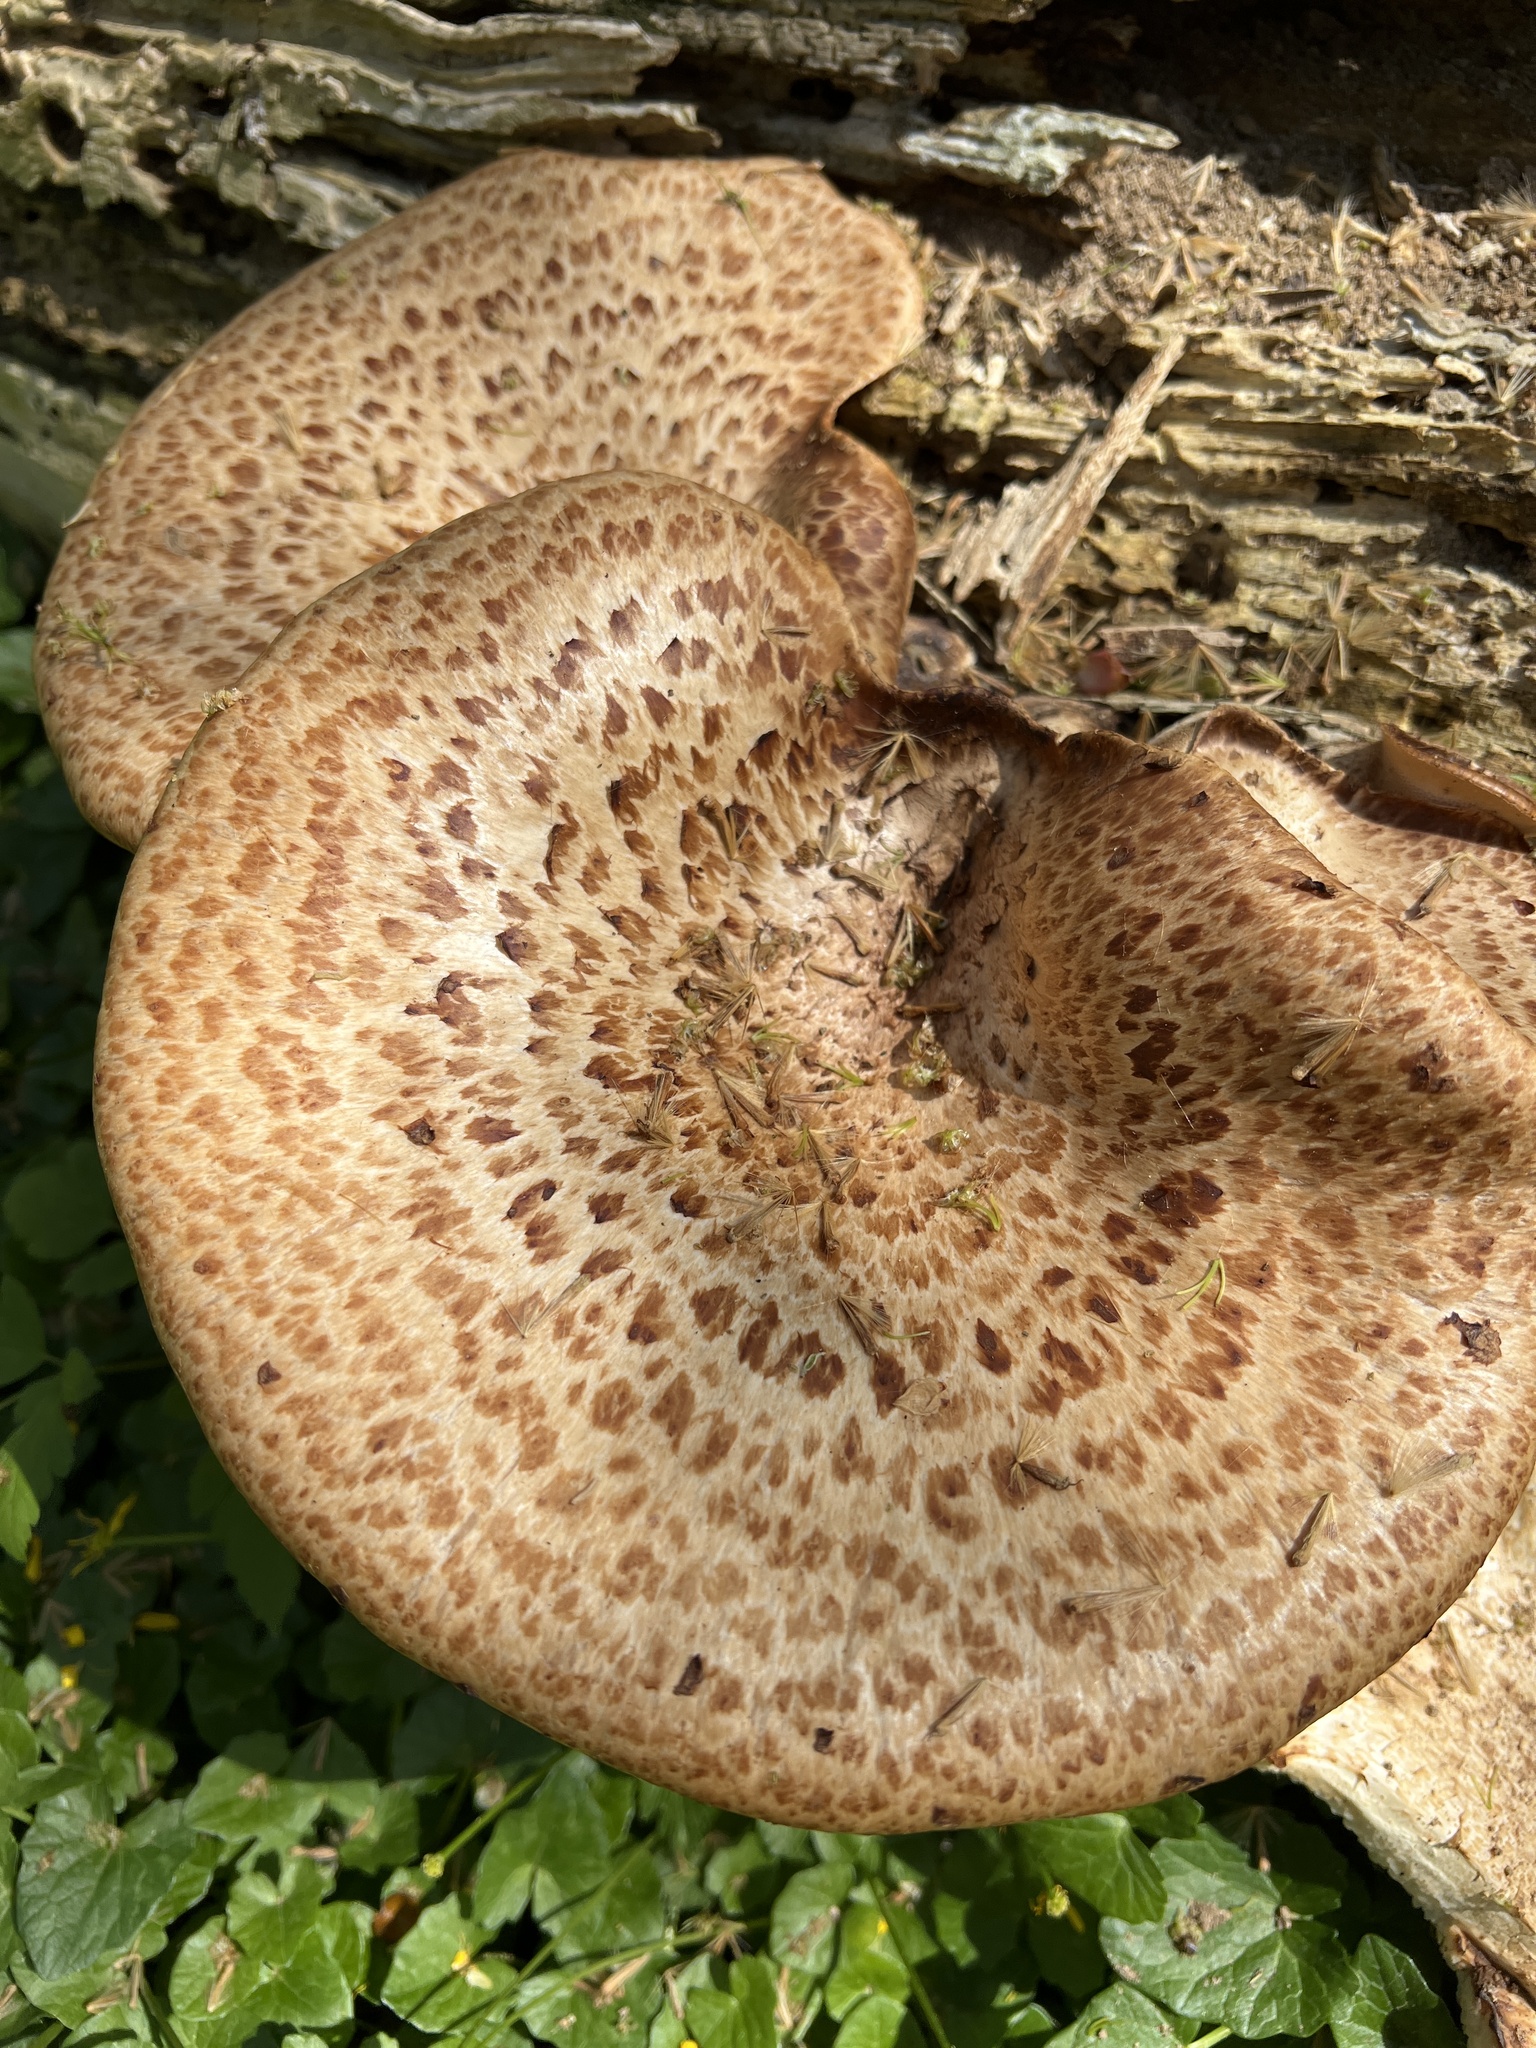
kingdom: Fungi
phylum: Basidiomycota
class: Agaricomycetes
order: Polyporales
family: Polyporaceae
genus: Cerioporus
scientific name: Cerioporus squamosus
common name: Dryad's saddle
